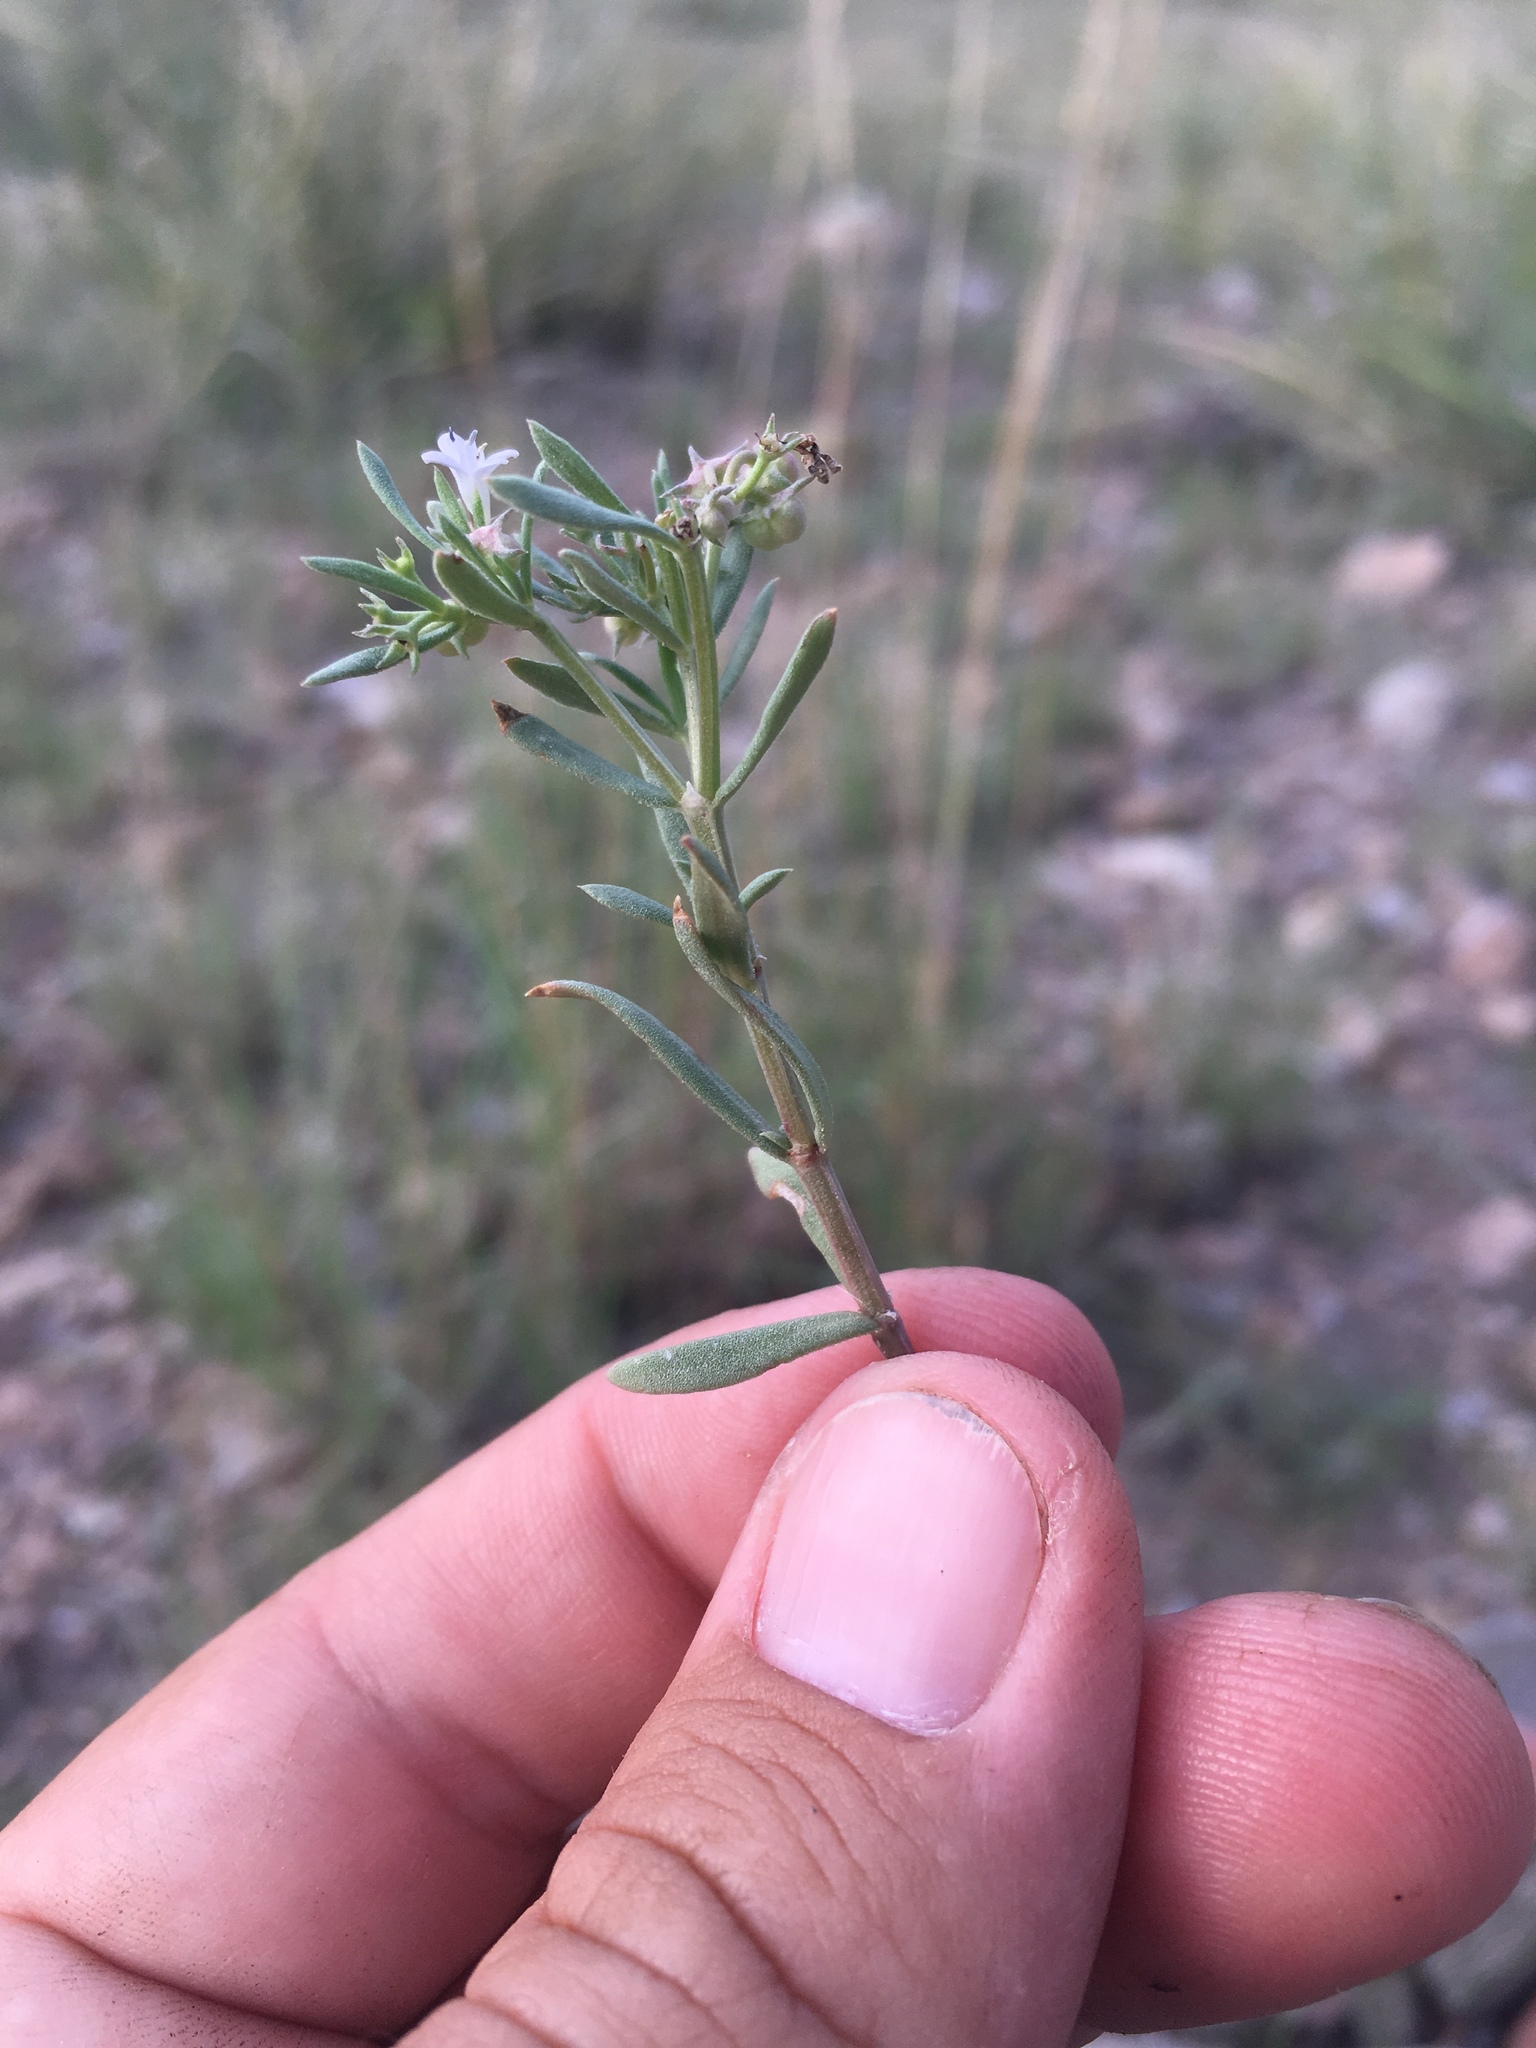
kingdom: Plantae
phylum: Tracheophyta
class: Magnoliopsida
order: Gentianales
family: Rubiaceae
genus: Houstonia
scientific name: Houstonia wrightii
